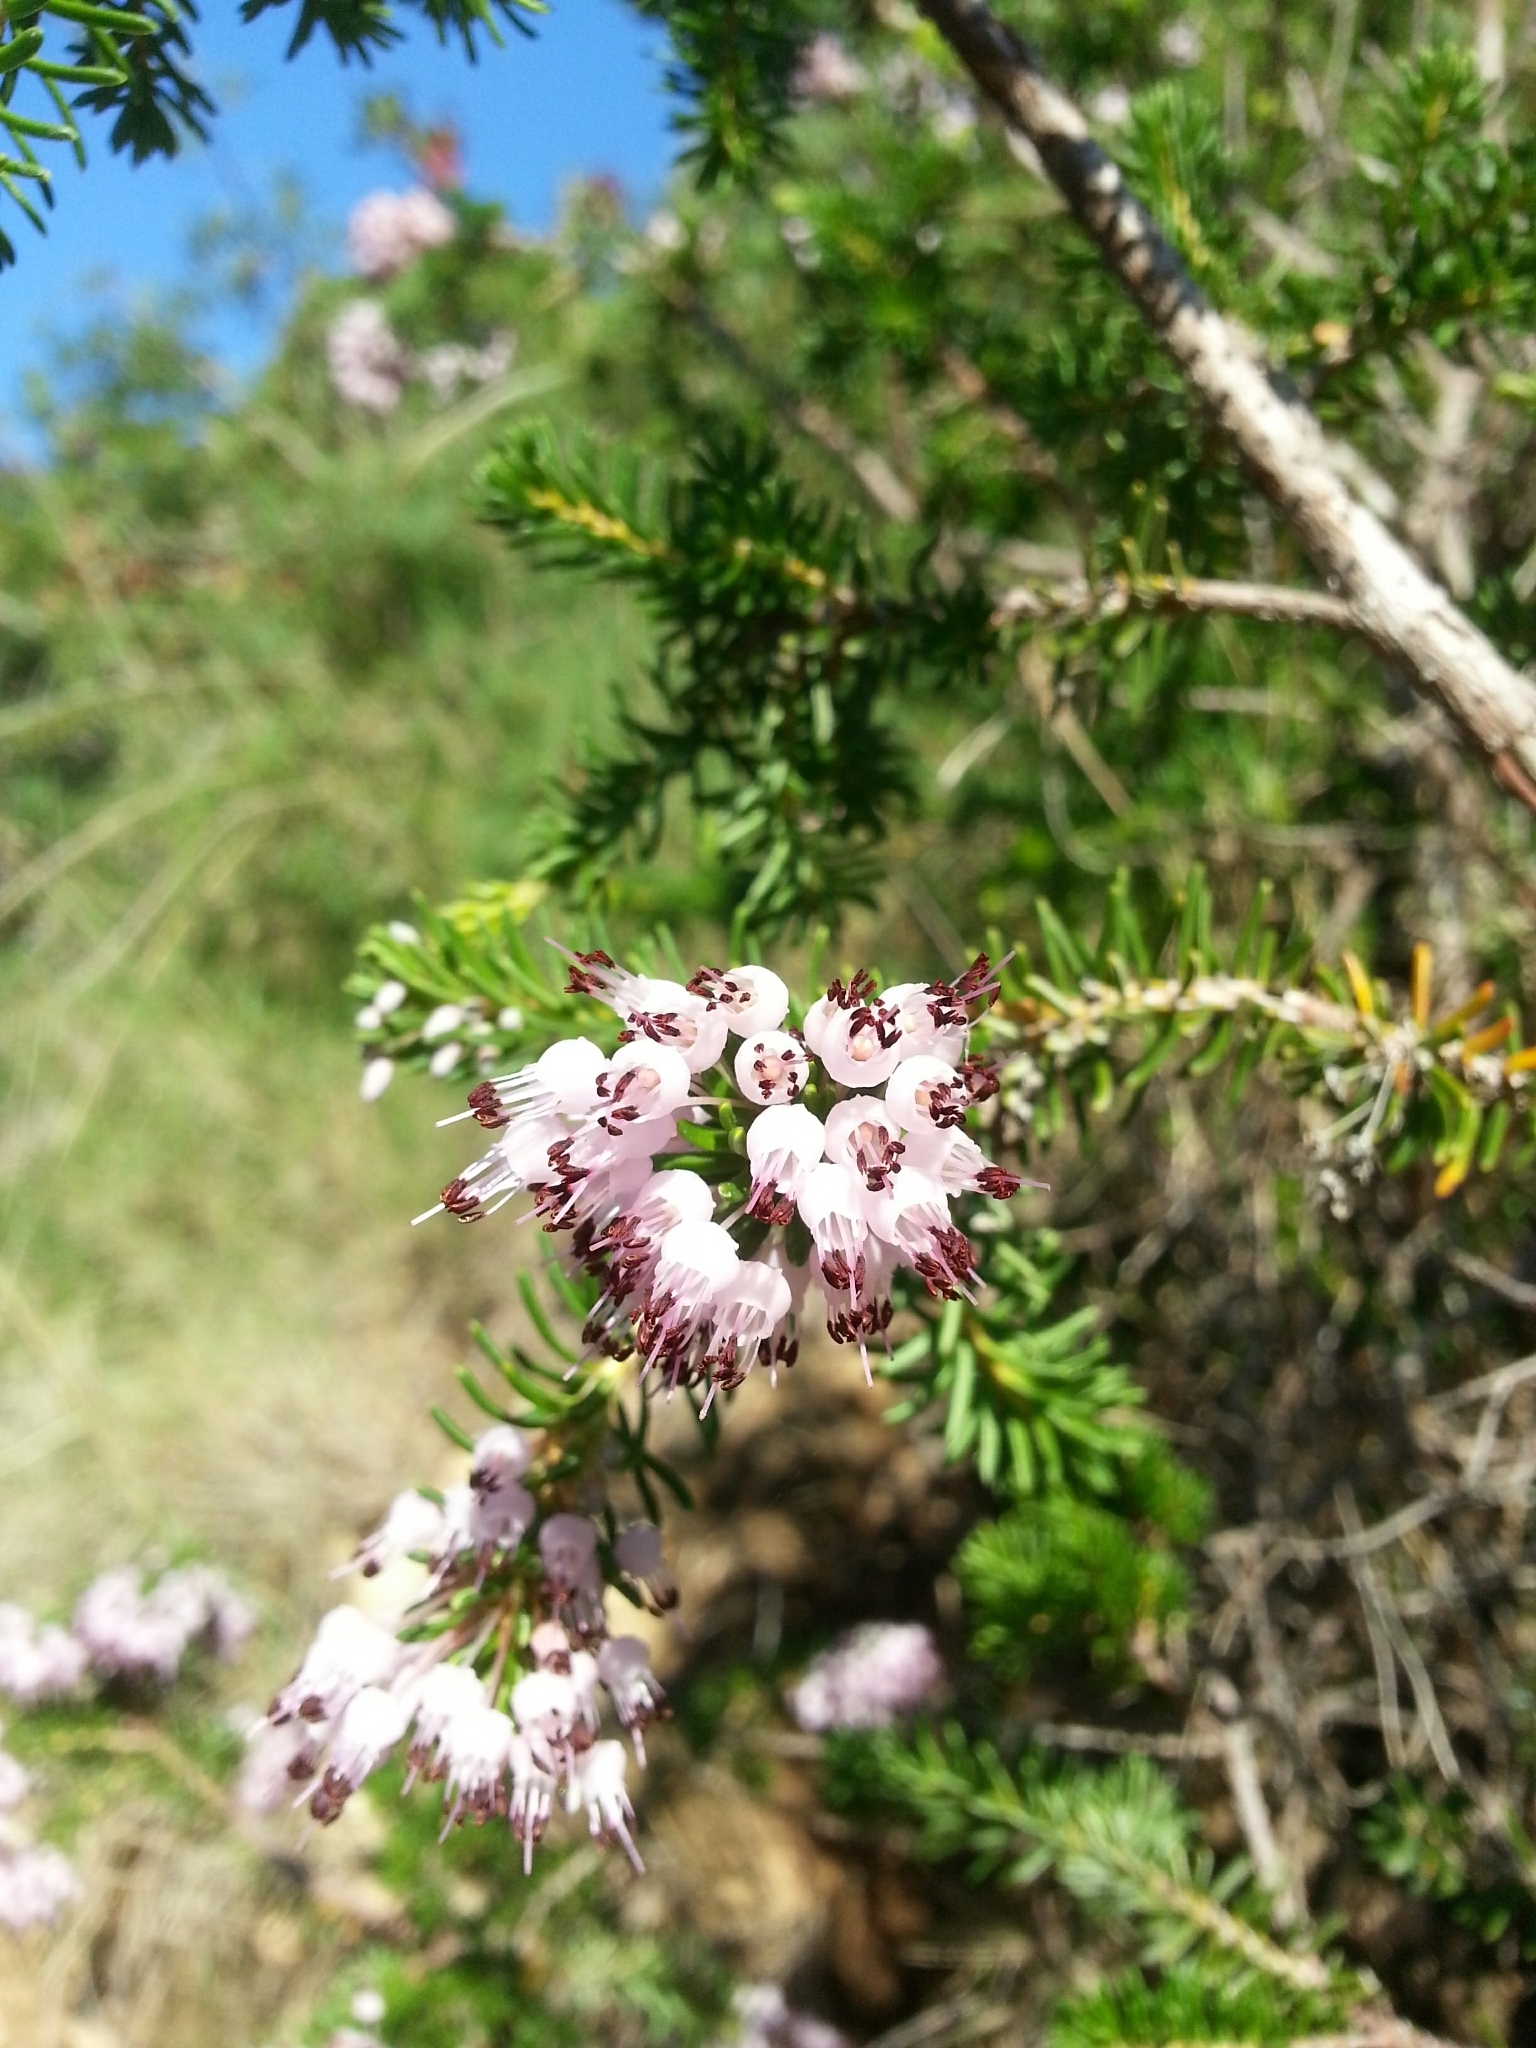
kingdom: Plantae
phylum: Tracheophyta
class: Magnoliopsida
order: Ericales
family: Ericaceae
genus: Erica
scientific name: Erica multiflora
